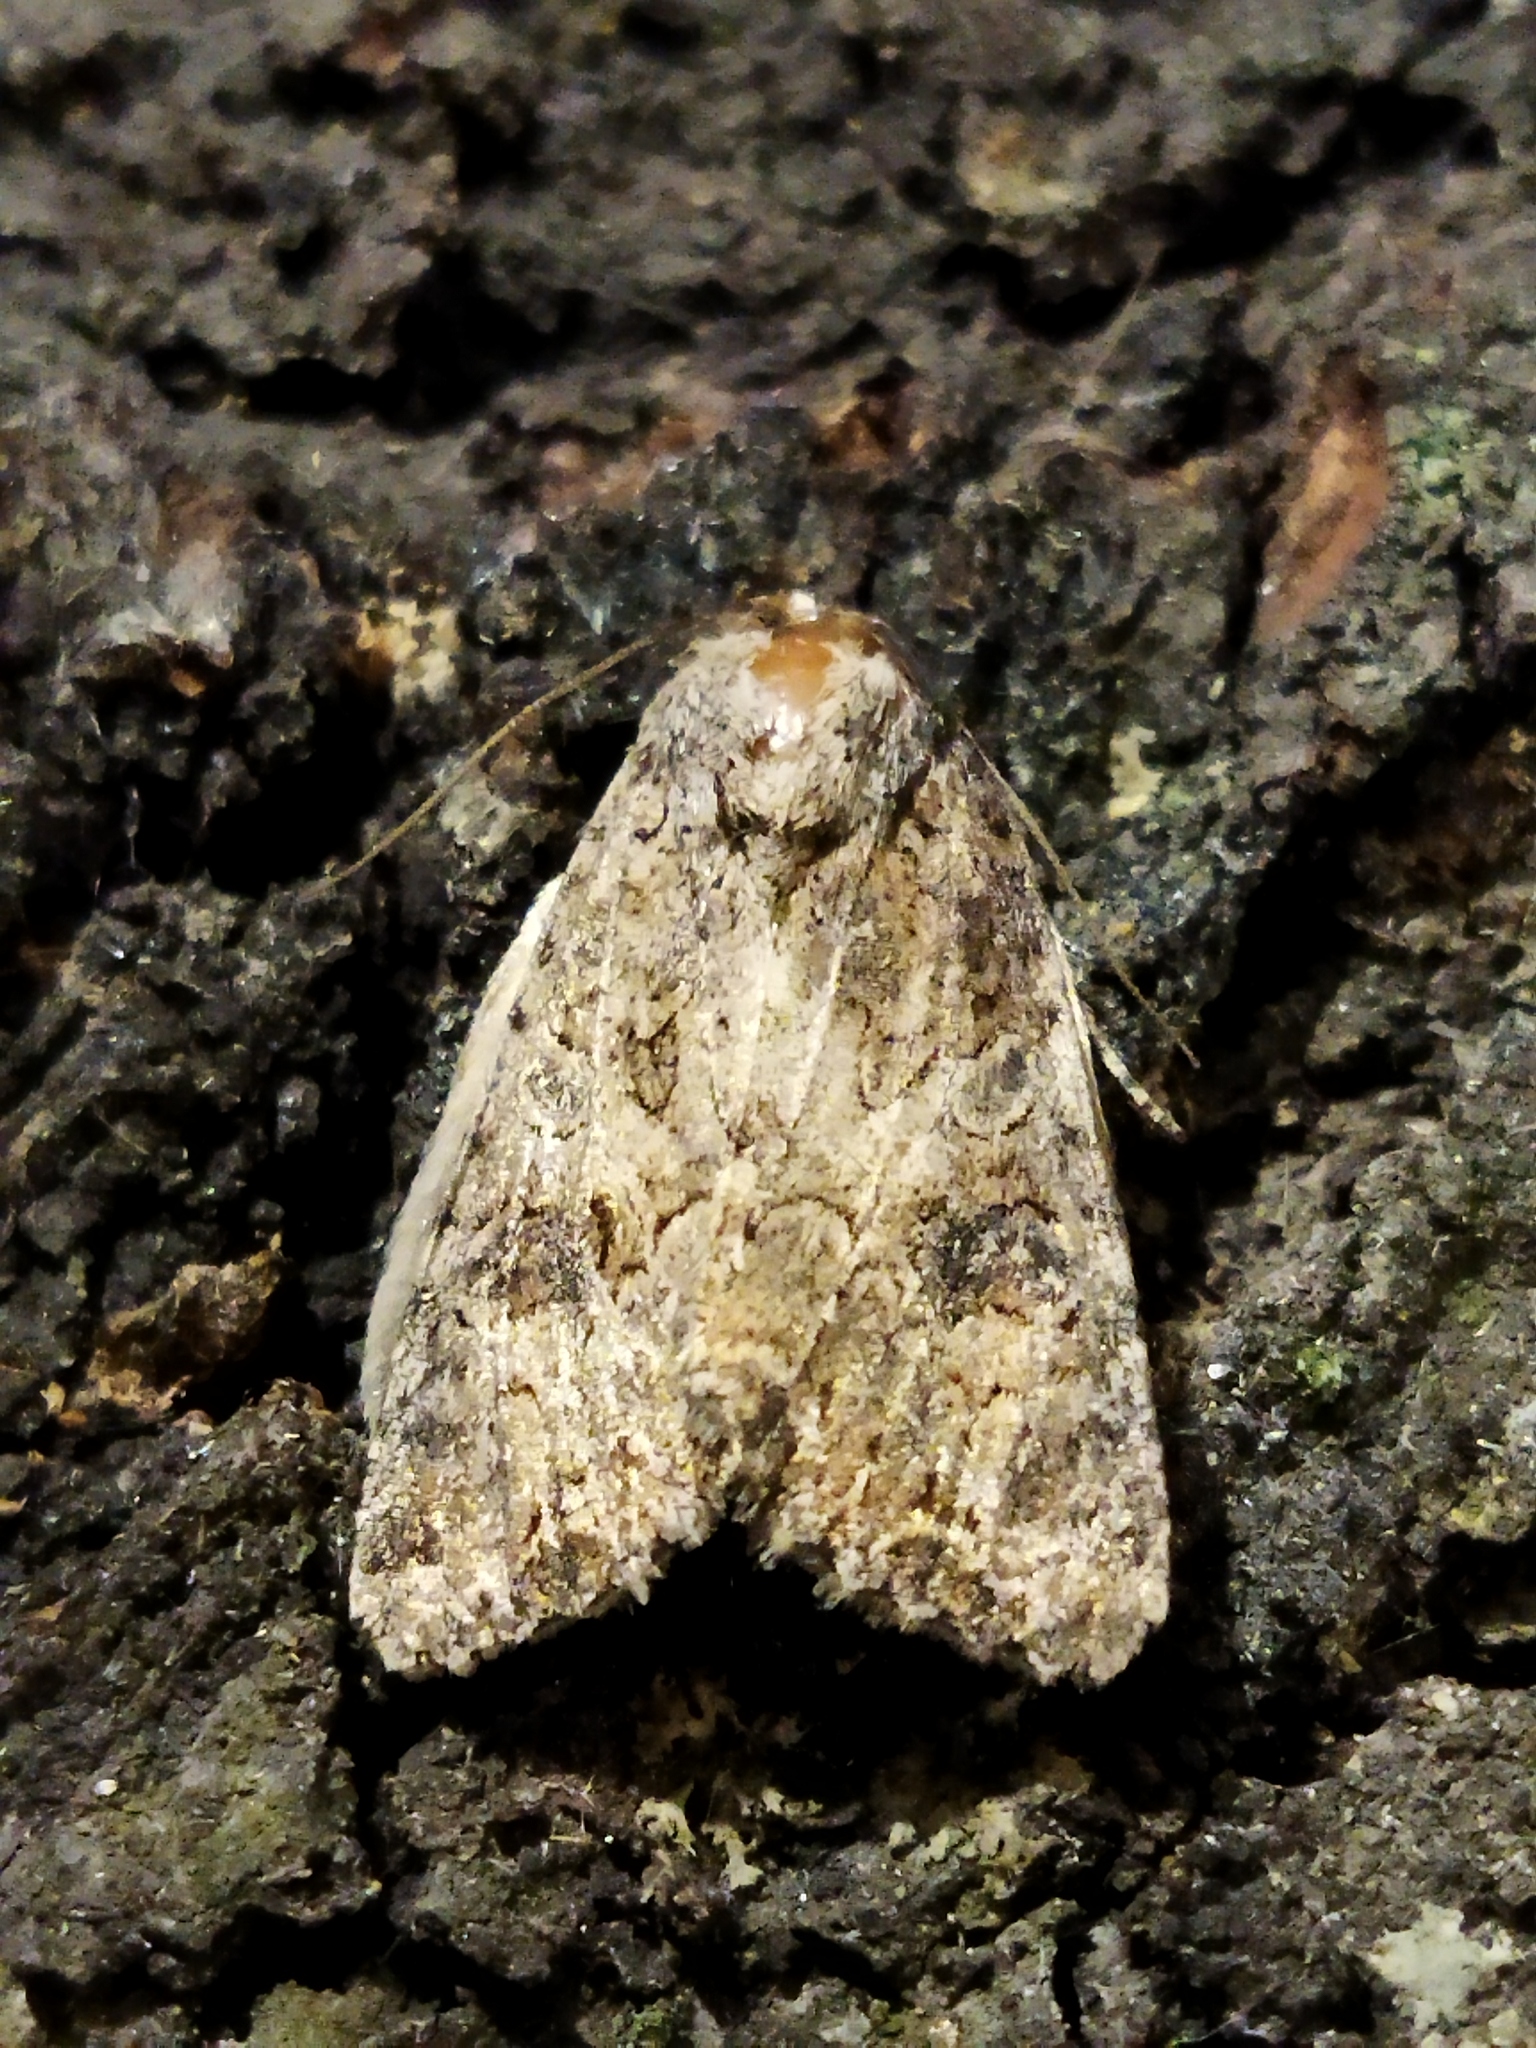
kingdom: Animalia
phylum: Arthropoda
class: Insecta
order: Lepidoptera
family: Noctuidae
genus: Anarta
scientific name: Anarta trifolii
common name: Clover cutworm moth
